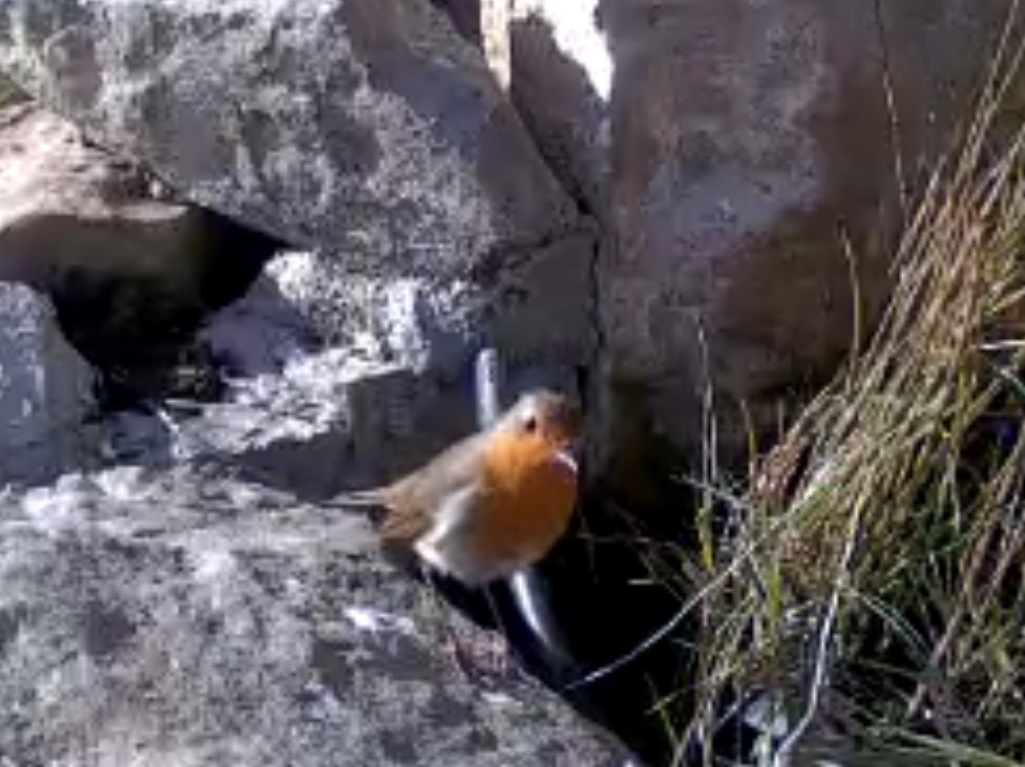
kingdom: Animalia
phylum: Chordata
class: Aves
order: Passeriformes
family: Muscicapidae
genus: Erithacus
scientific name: Erithacus rubecula
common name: European robin
